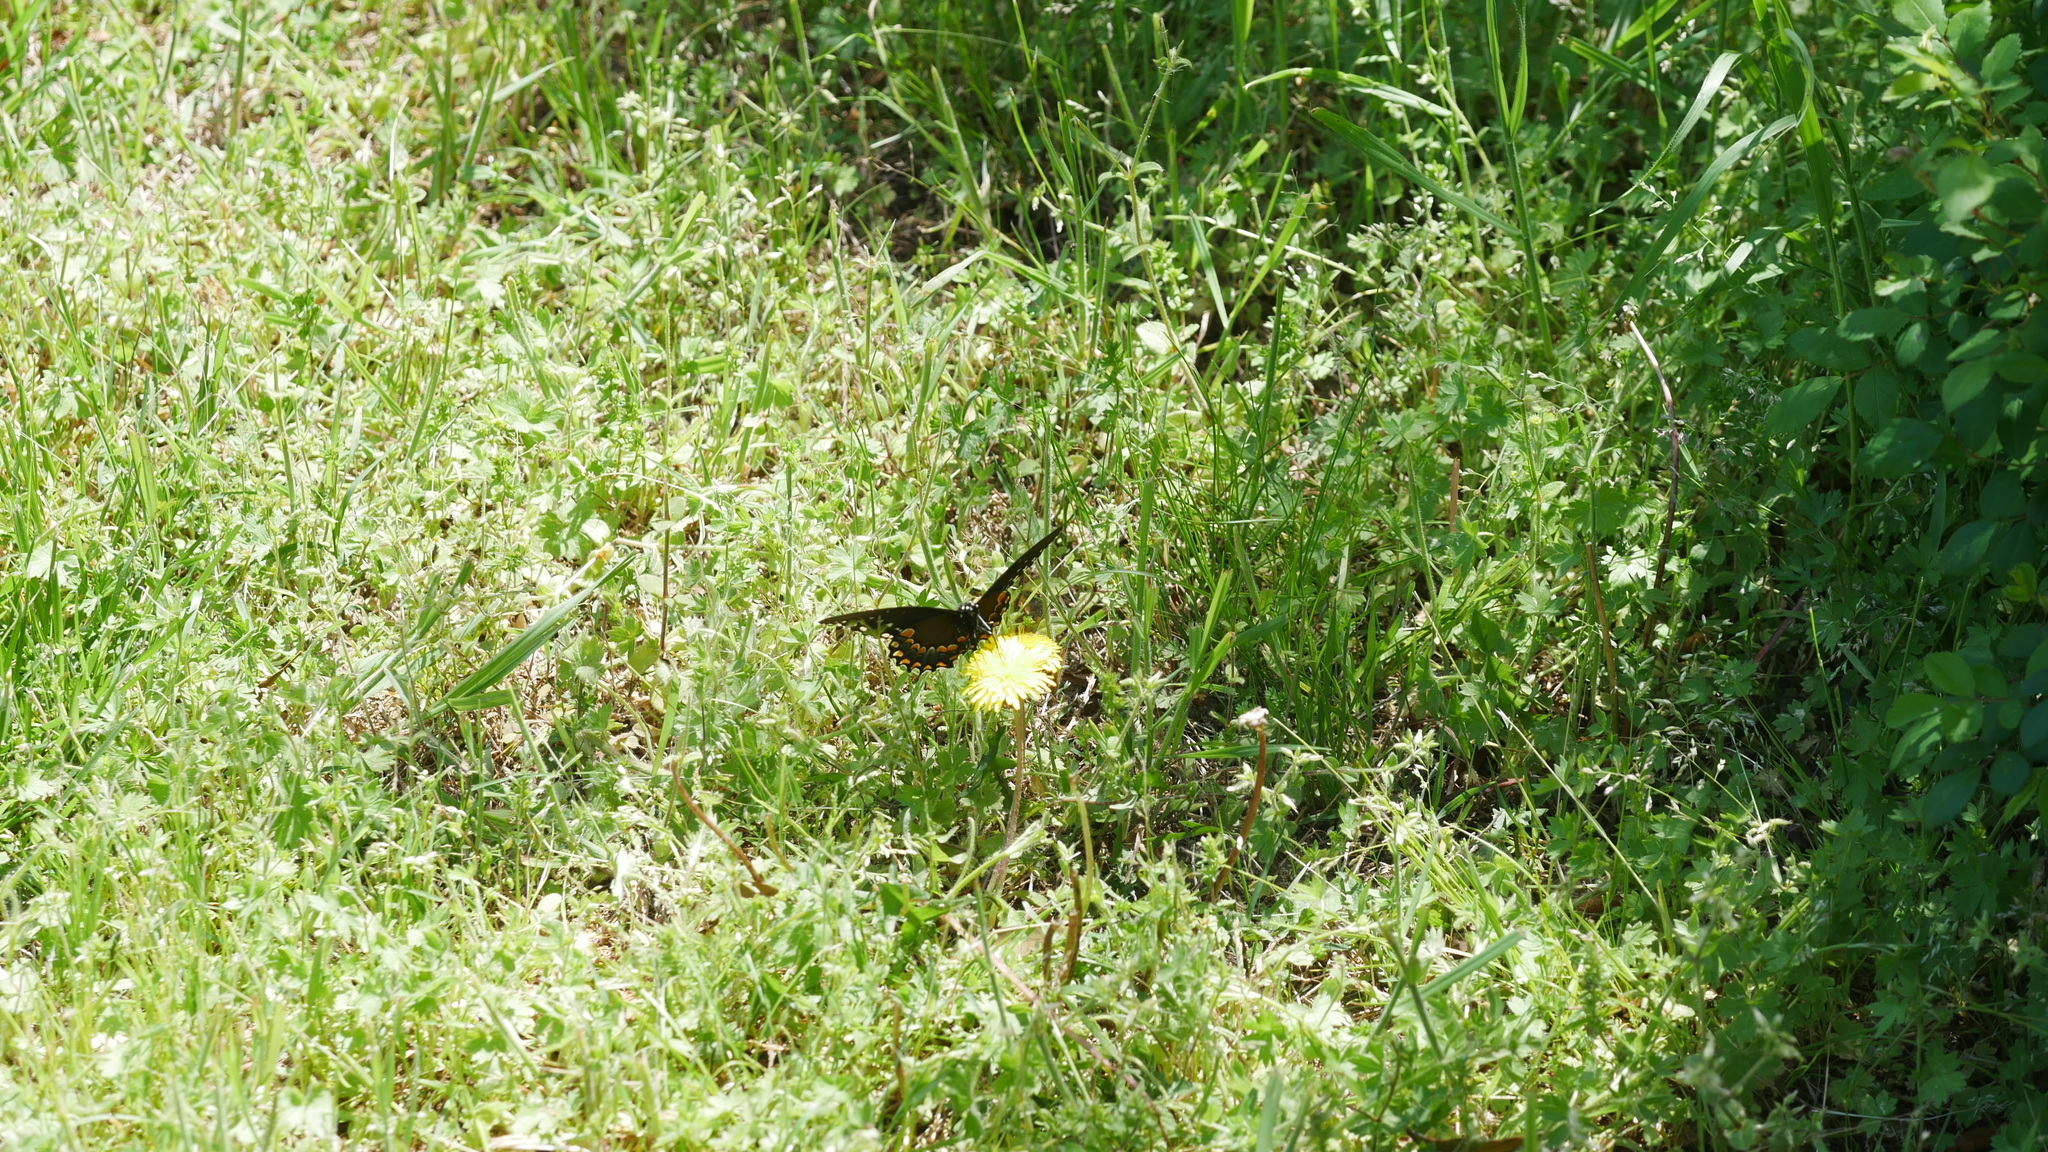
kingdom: Animalia
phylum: Arthropoda
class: Insecta
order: Lepidoptera
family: Papilionidae
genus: Papilio
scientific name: Papilio troilus
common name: Spicebush swallowtail
